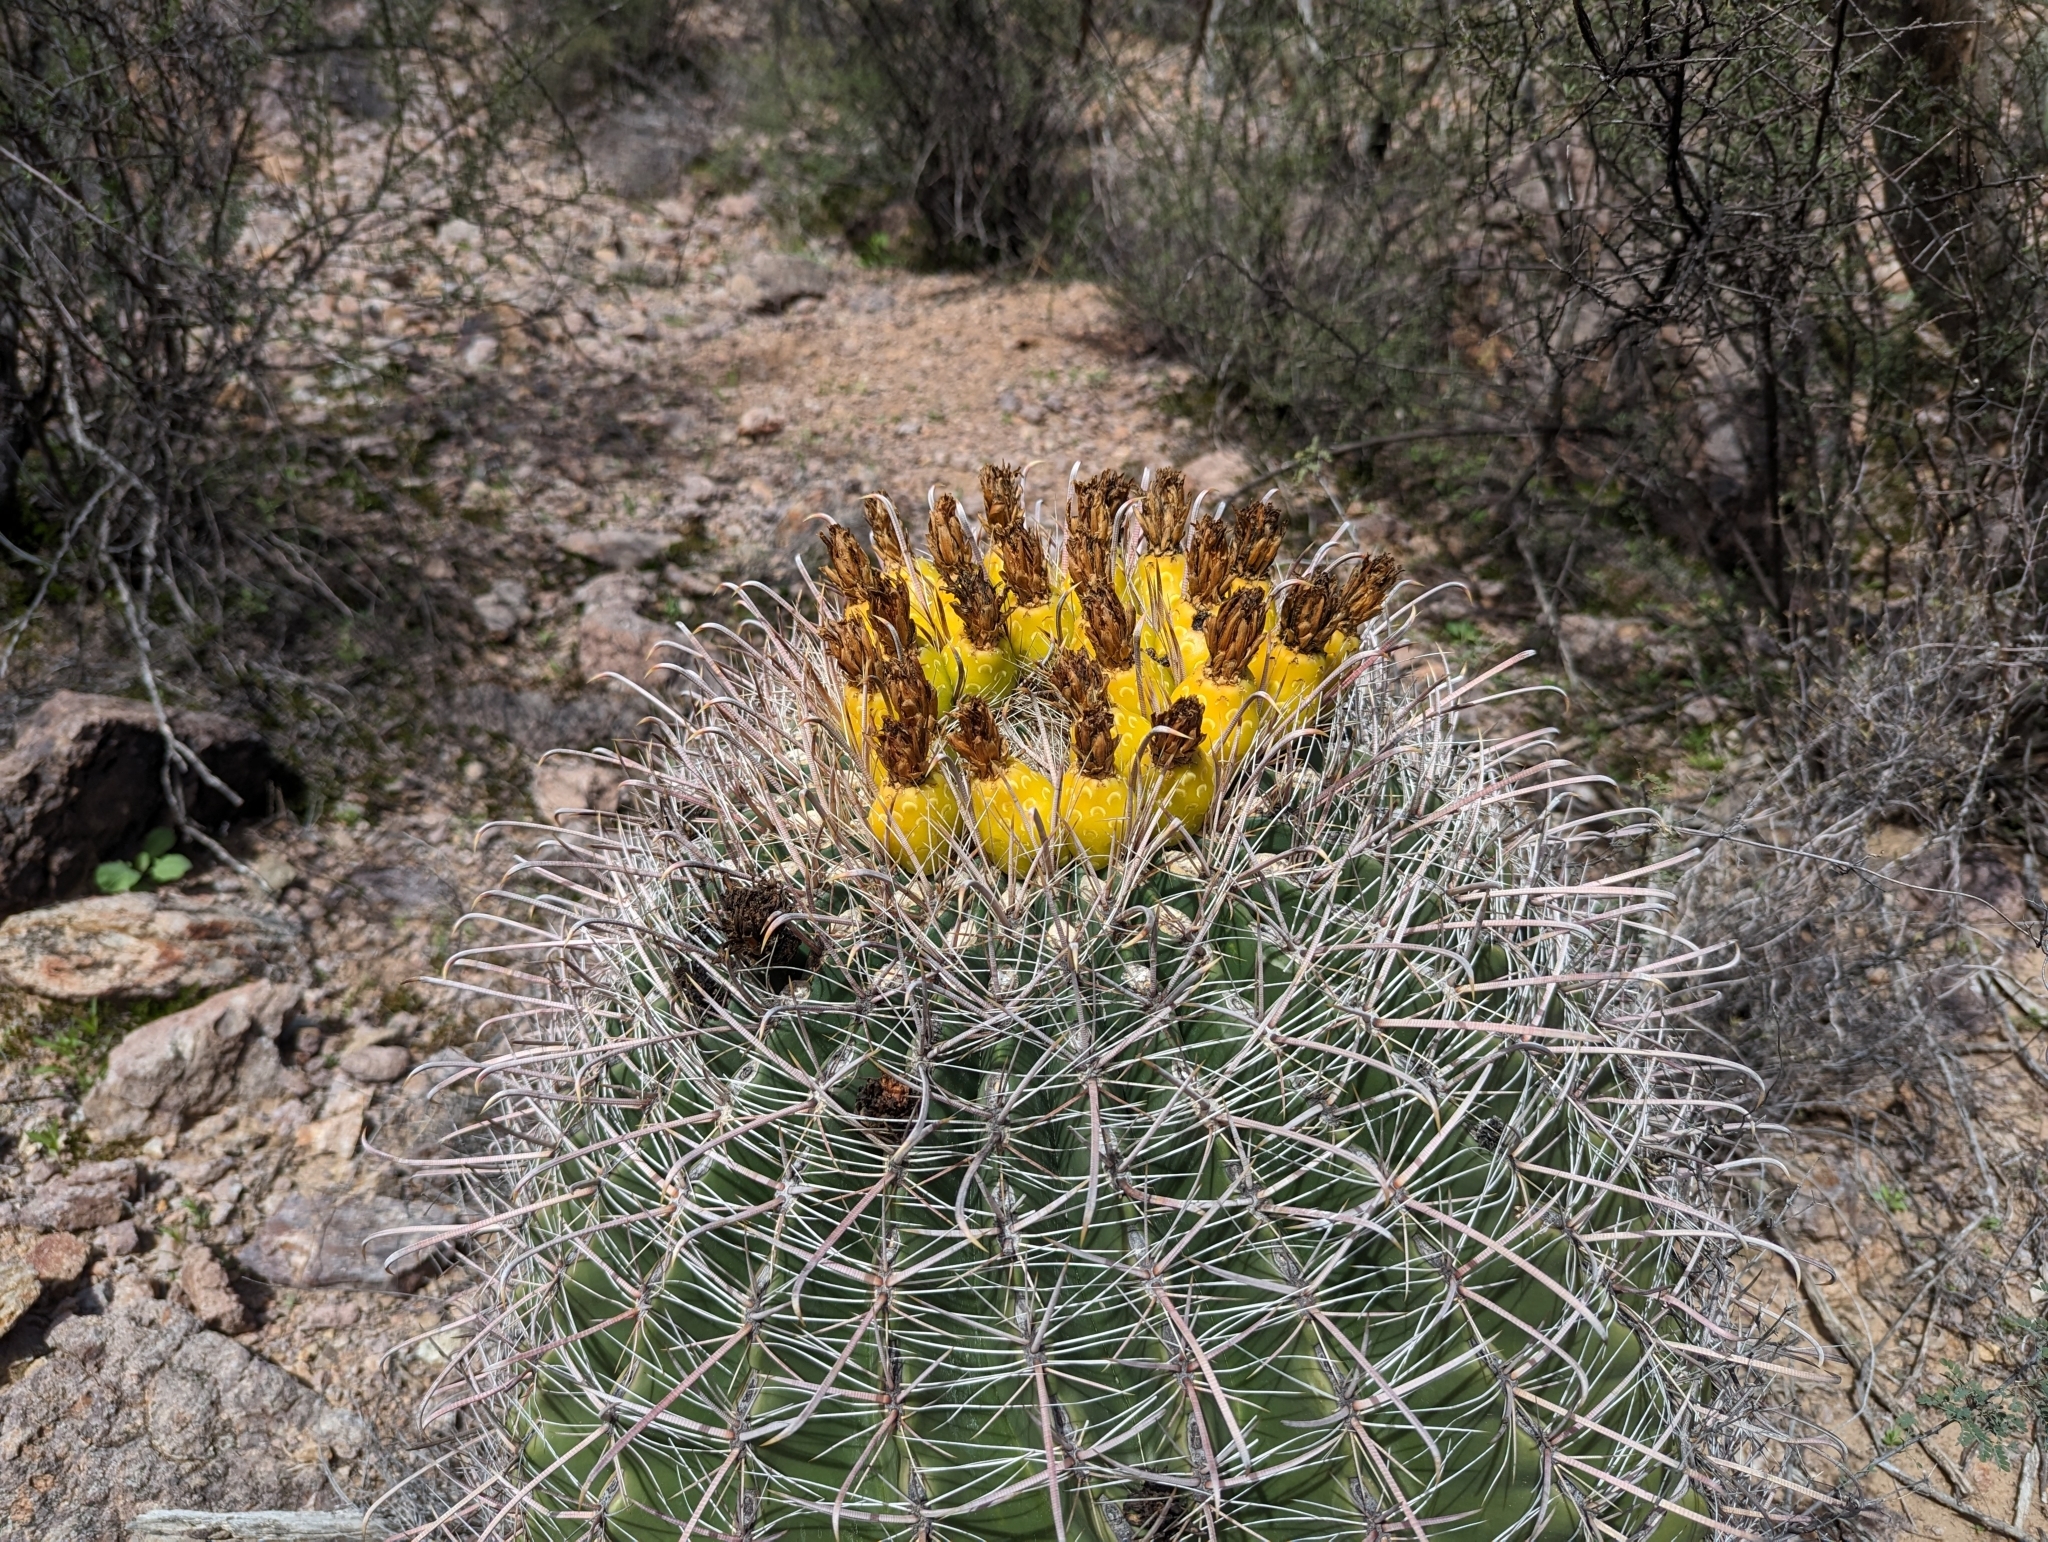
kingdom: Plantae
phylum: Tracheophyta
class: Magnoliopsida
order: Caryophyllales
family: Cactaceae
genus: Ferocactus
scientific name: Ferocactus wislizeni
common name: Candy barrel cactus
